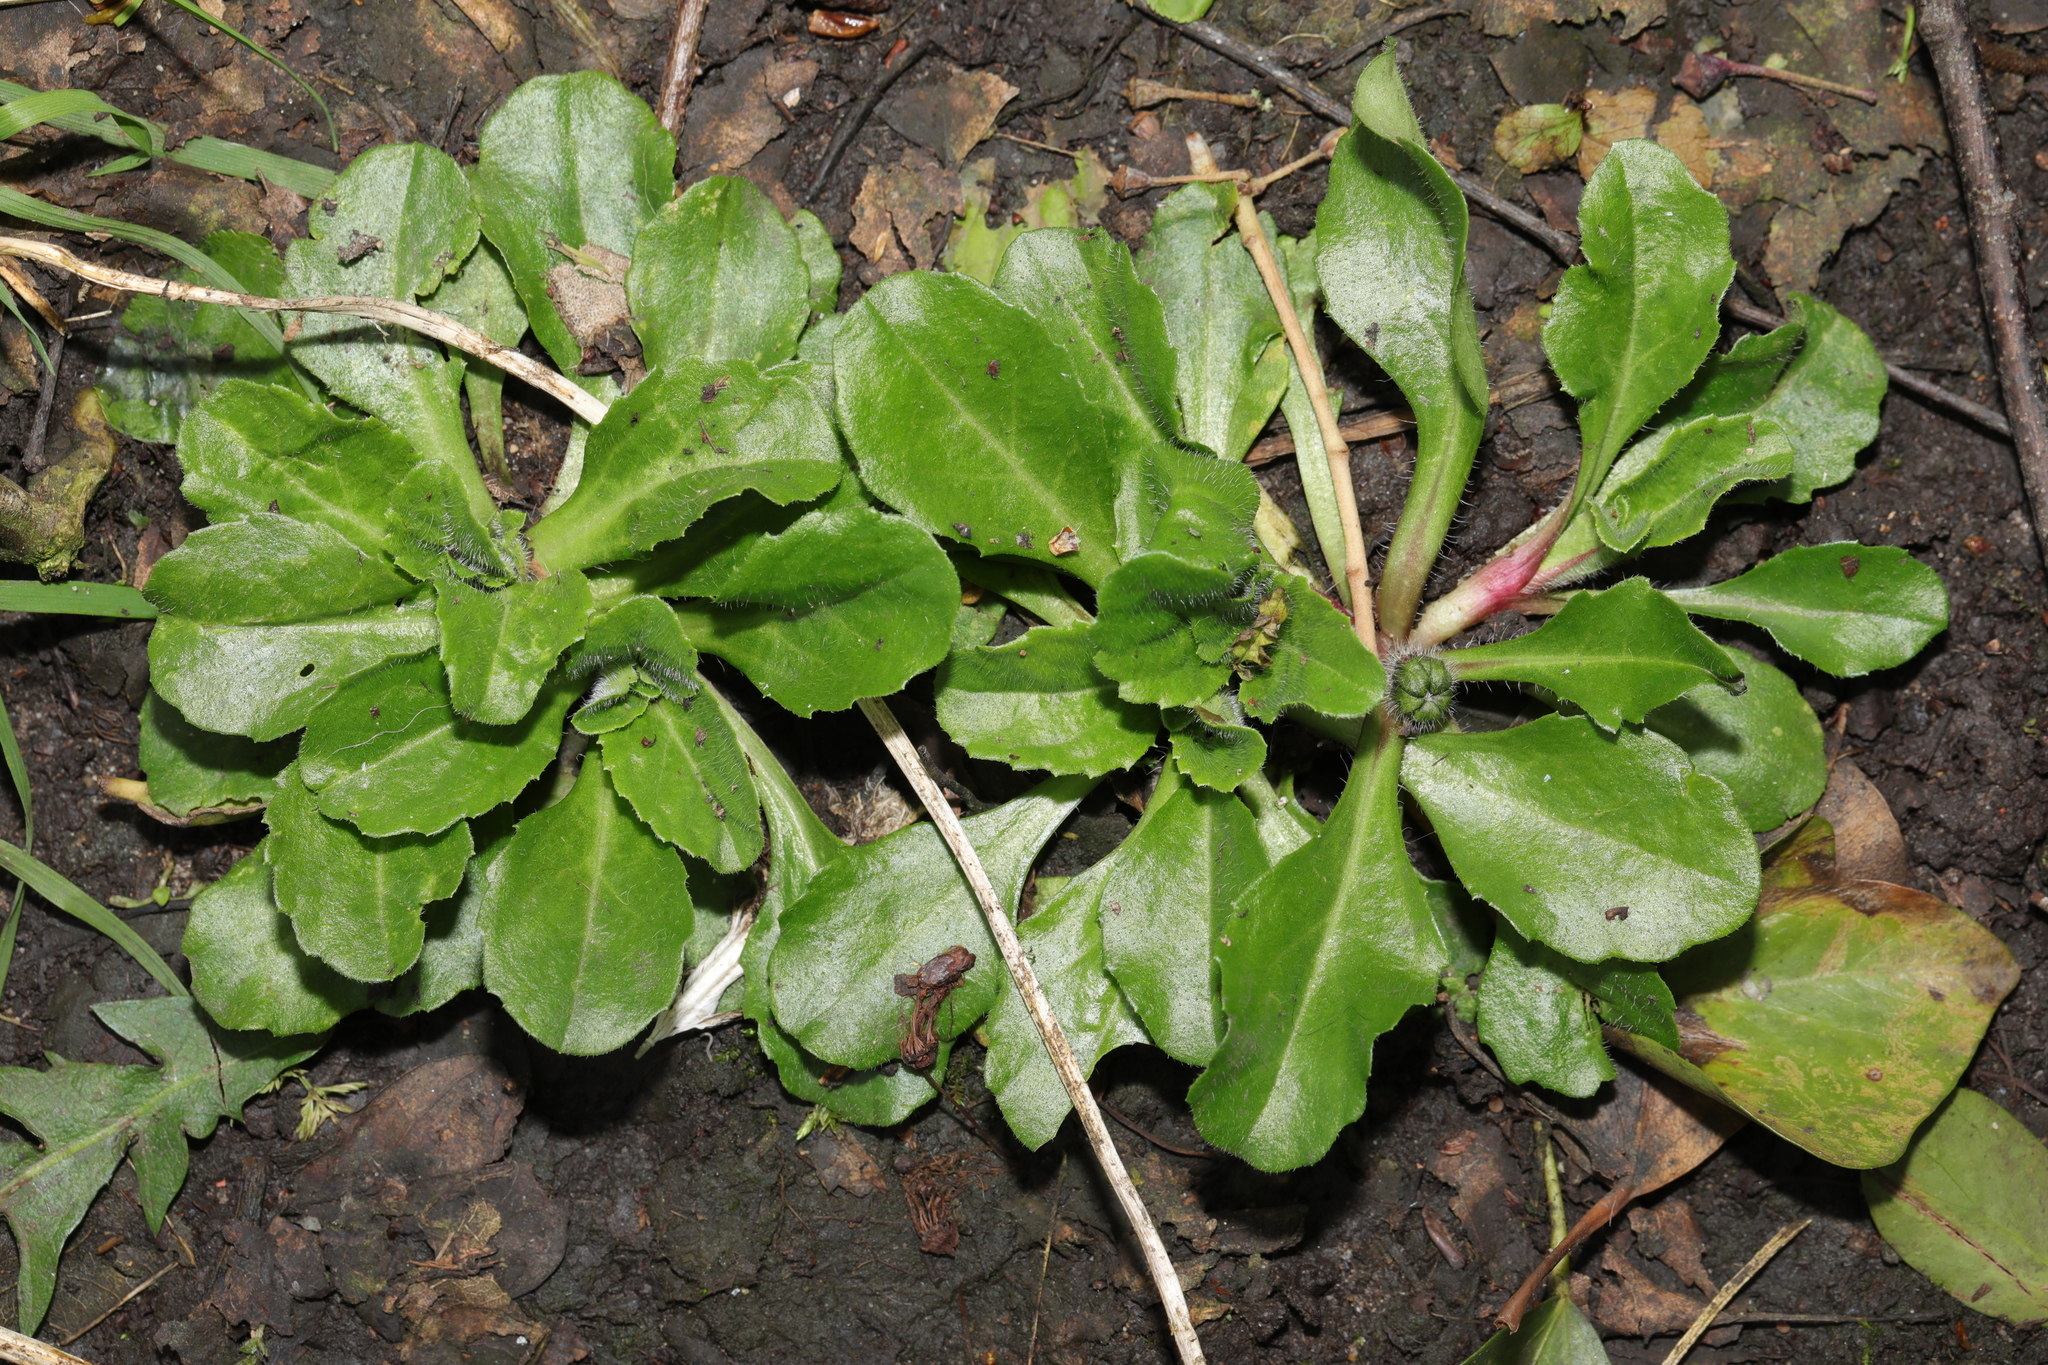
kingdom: Plantae
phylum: Tracheophyta
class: Magnoliopsida
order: Asterales
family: Asteraceae
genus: Bellis
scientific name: Bellis perennis
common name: Lawndaisy
